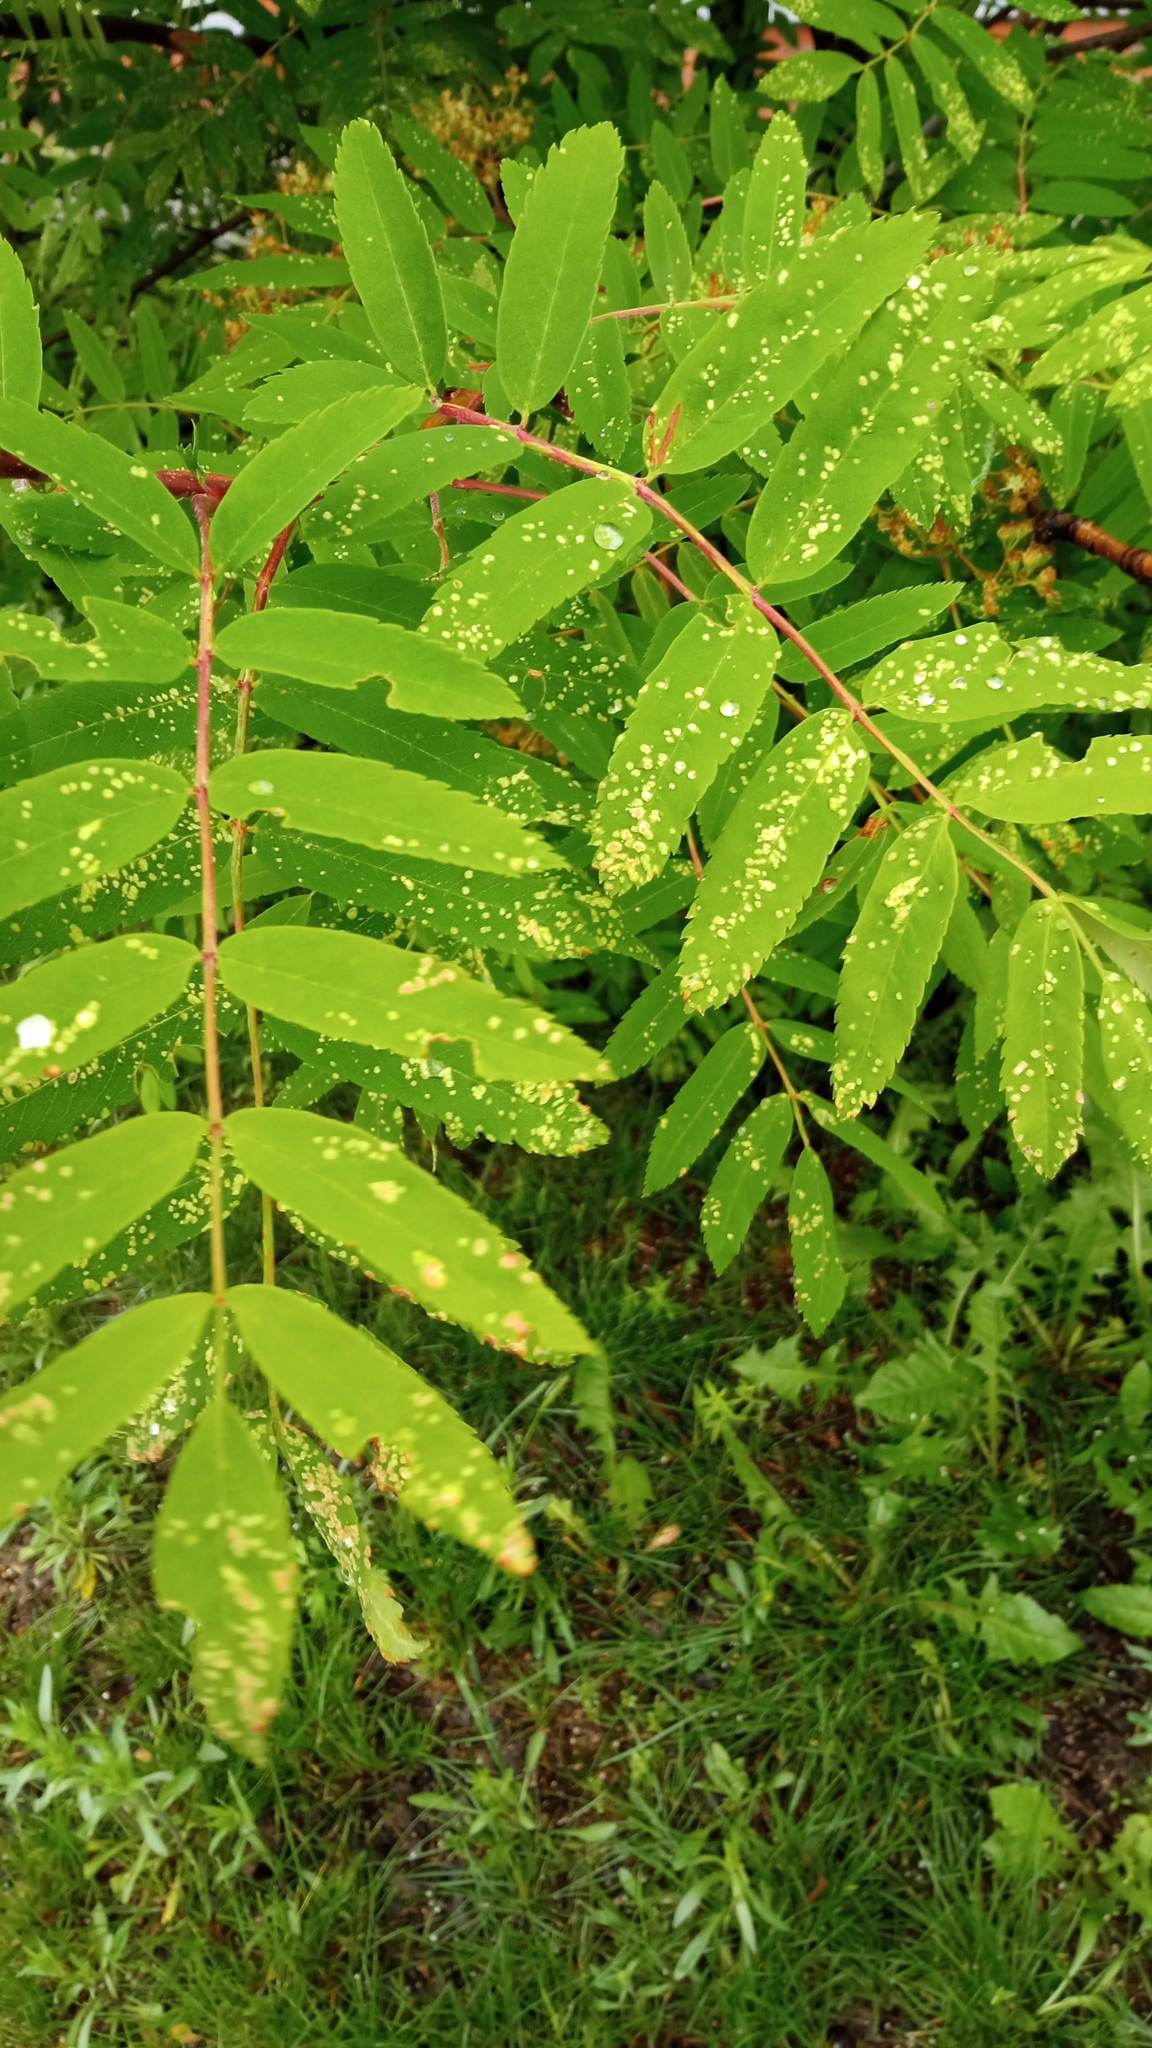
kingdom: Animalia
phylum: Arthropoda
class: Arachnida
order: Trombidiformes
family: Eriophyidae
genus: Eriophyes
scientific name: Eriophyes sorbi
